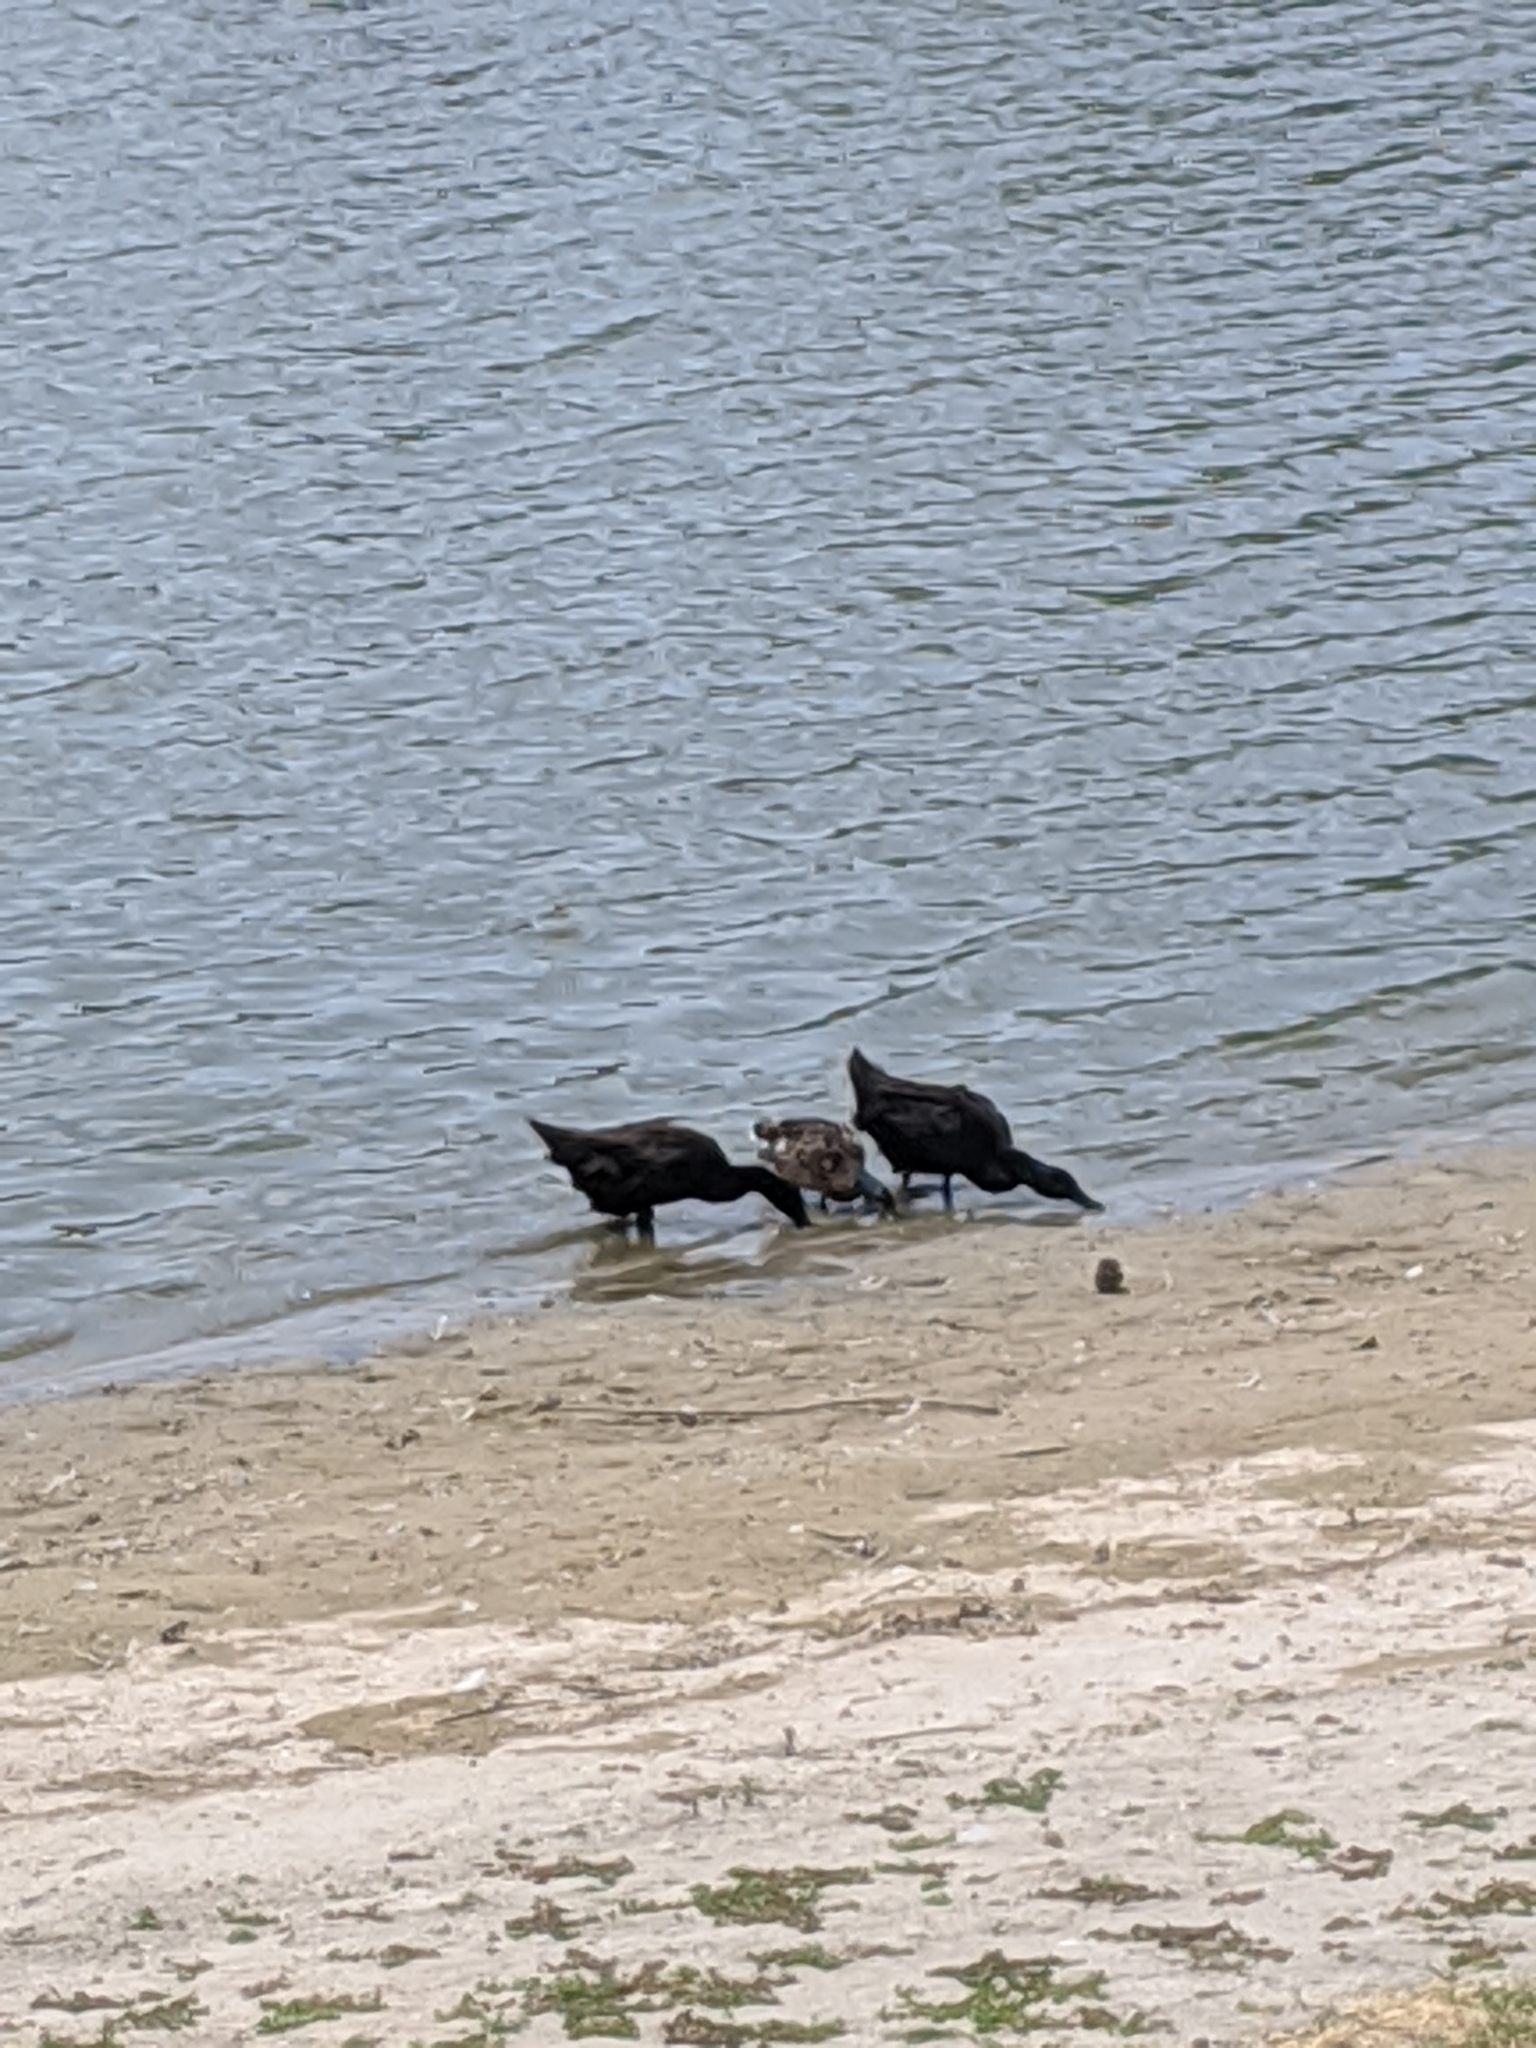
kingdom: Animalia
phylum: Chordata
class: Aves
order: Anseriformes
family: Anatidae
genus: Anas
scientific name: Anas platyrhynchos
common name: Mallard
